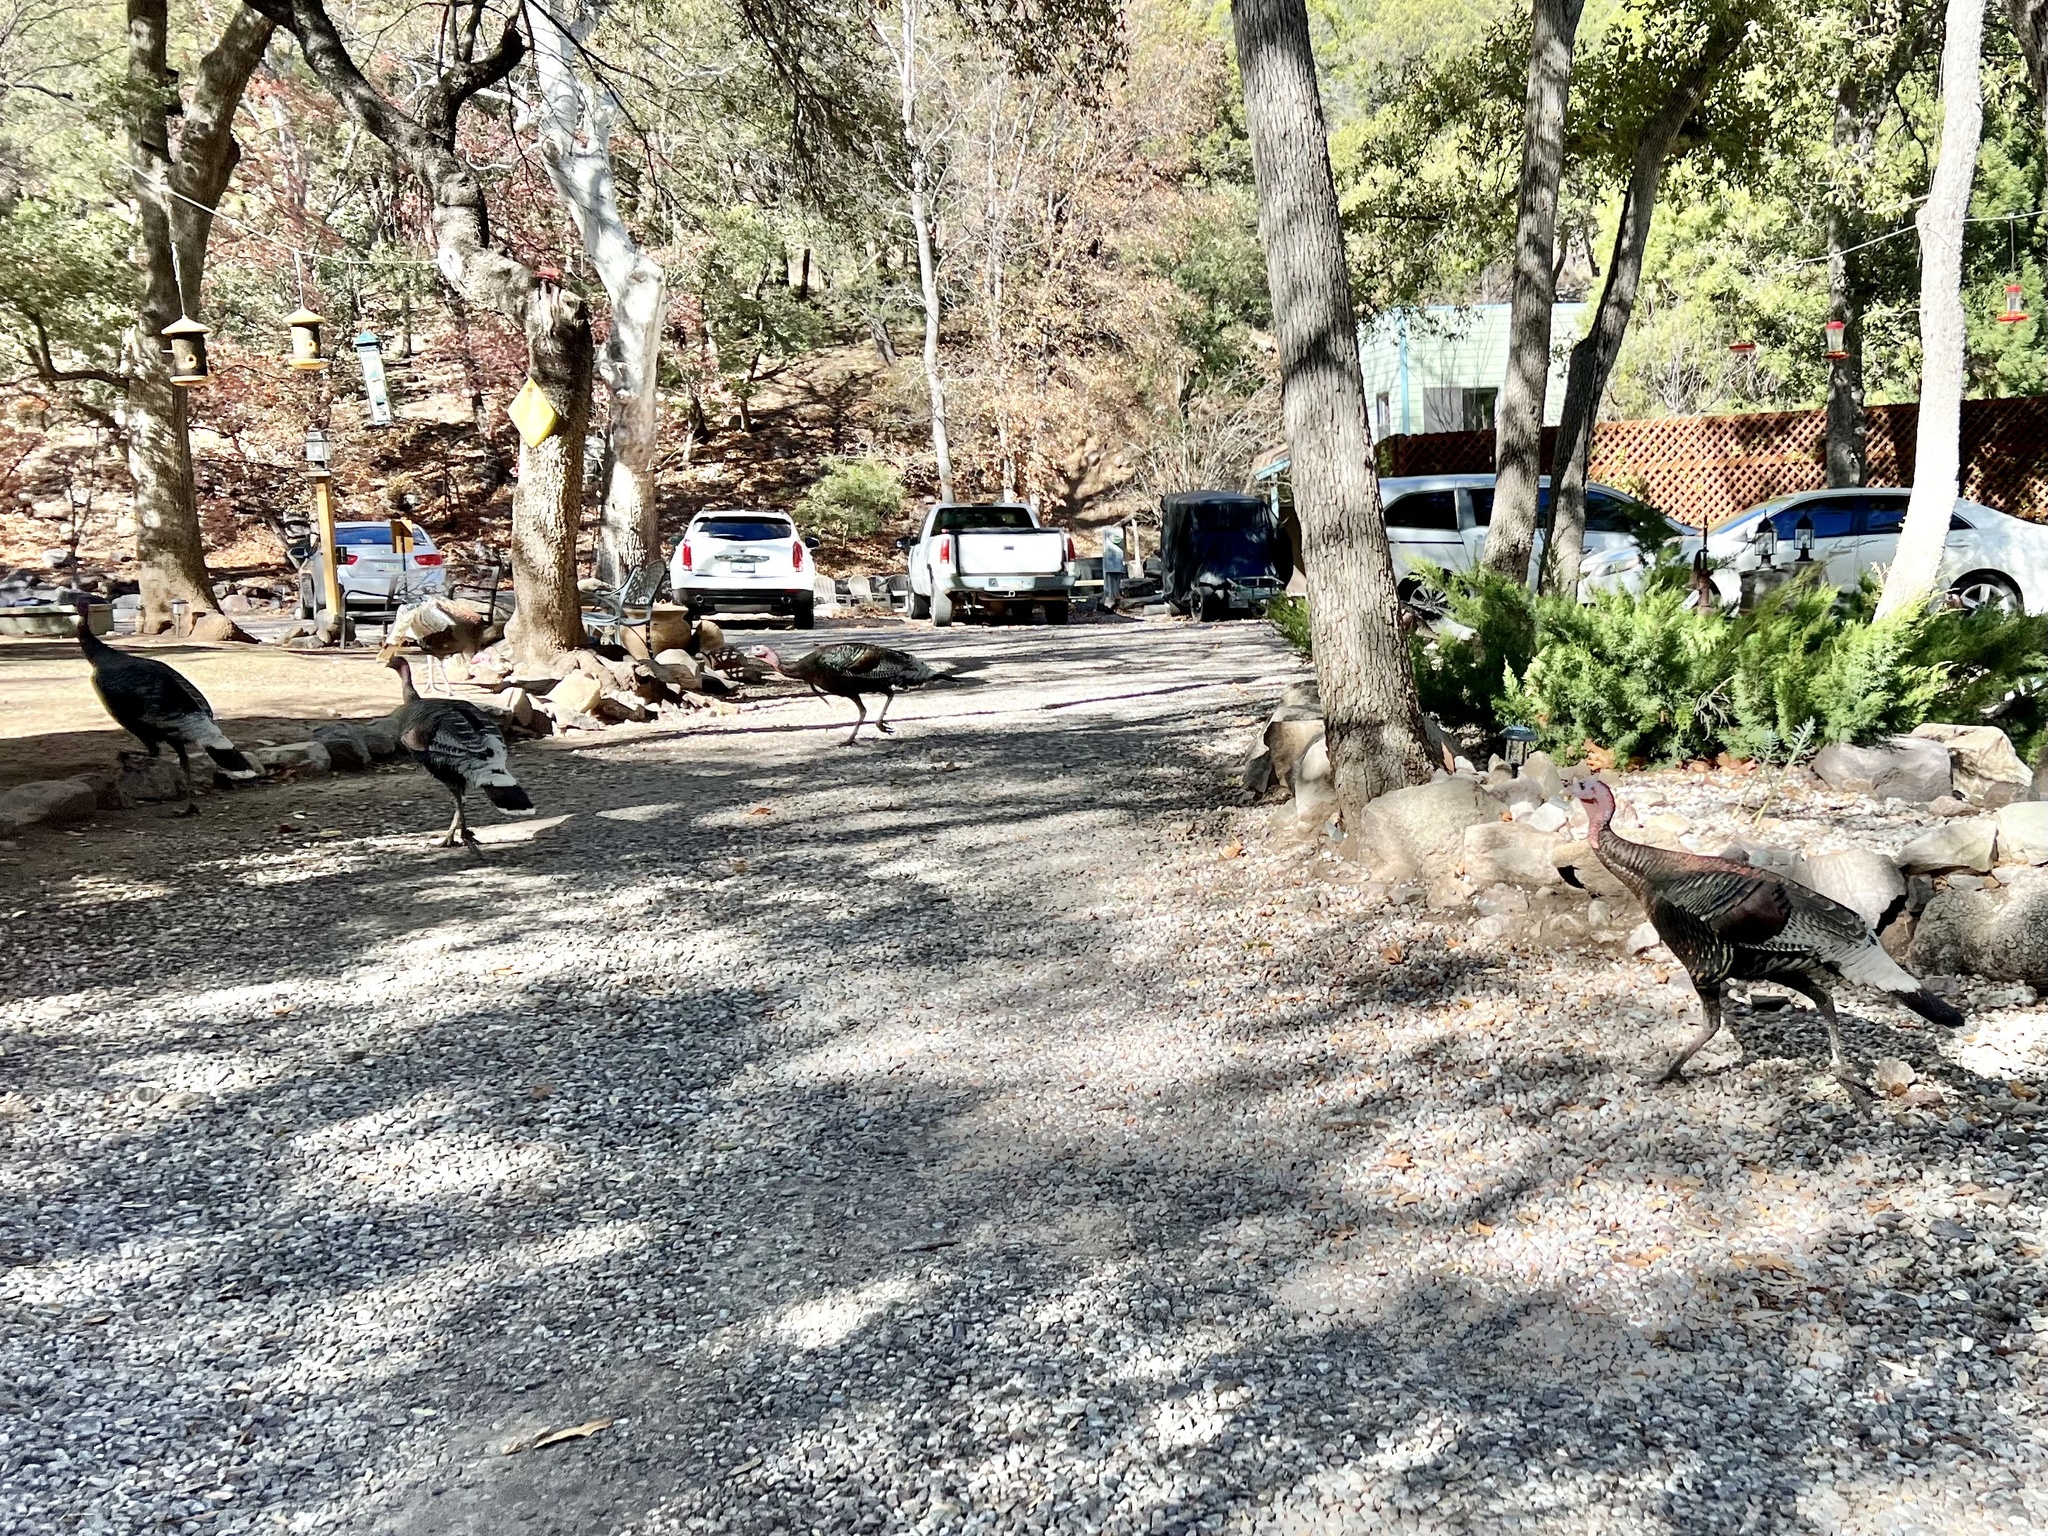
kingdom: Animalia
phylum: Chordata
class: Aves
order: Galliformes
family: Phasianidae
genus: Meleagris
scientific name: Meleagris gallopavo
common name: Wild turkey
